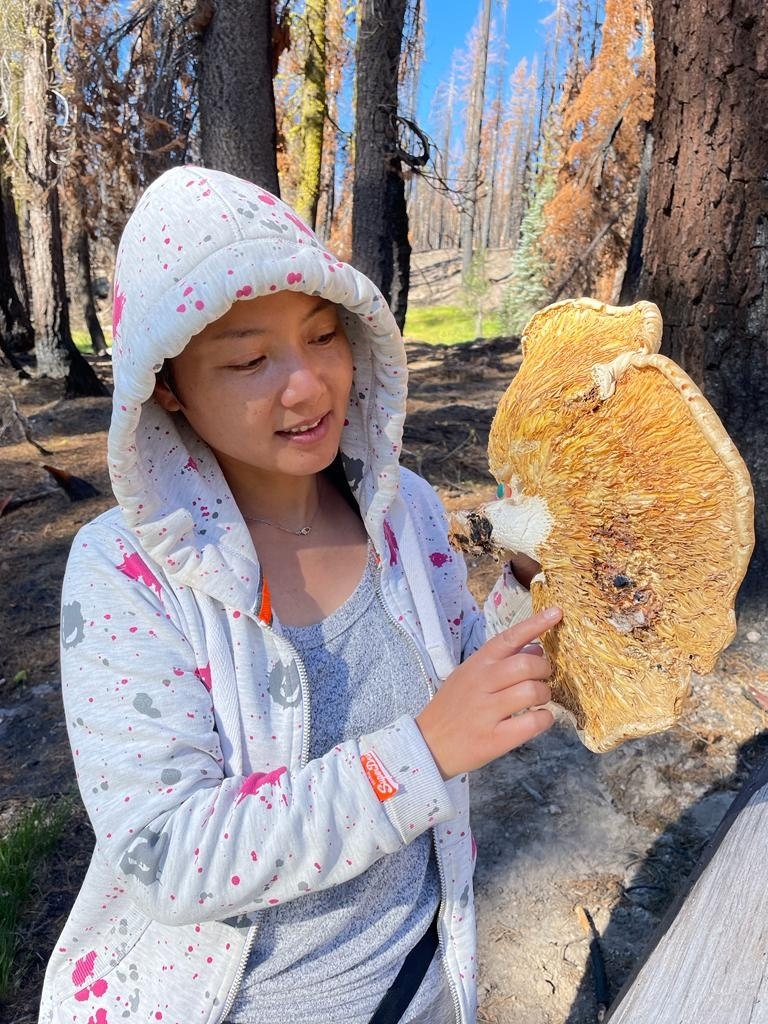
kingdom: Fungi
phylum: Basidiomycota
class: Agaricomycetes
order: Gloeophyllales
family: Gloeophyllaceae
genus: Neolentinus
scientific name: Neolentinus ponderosus
